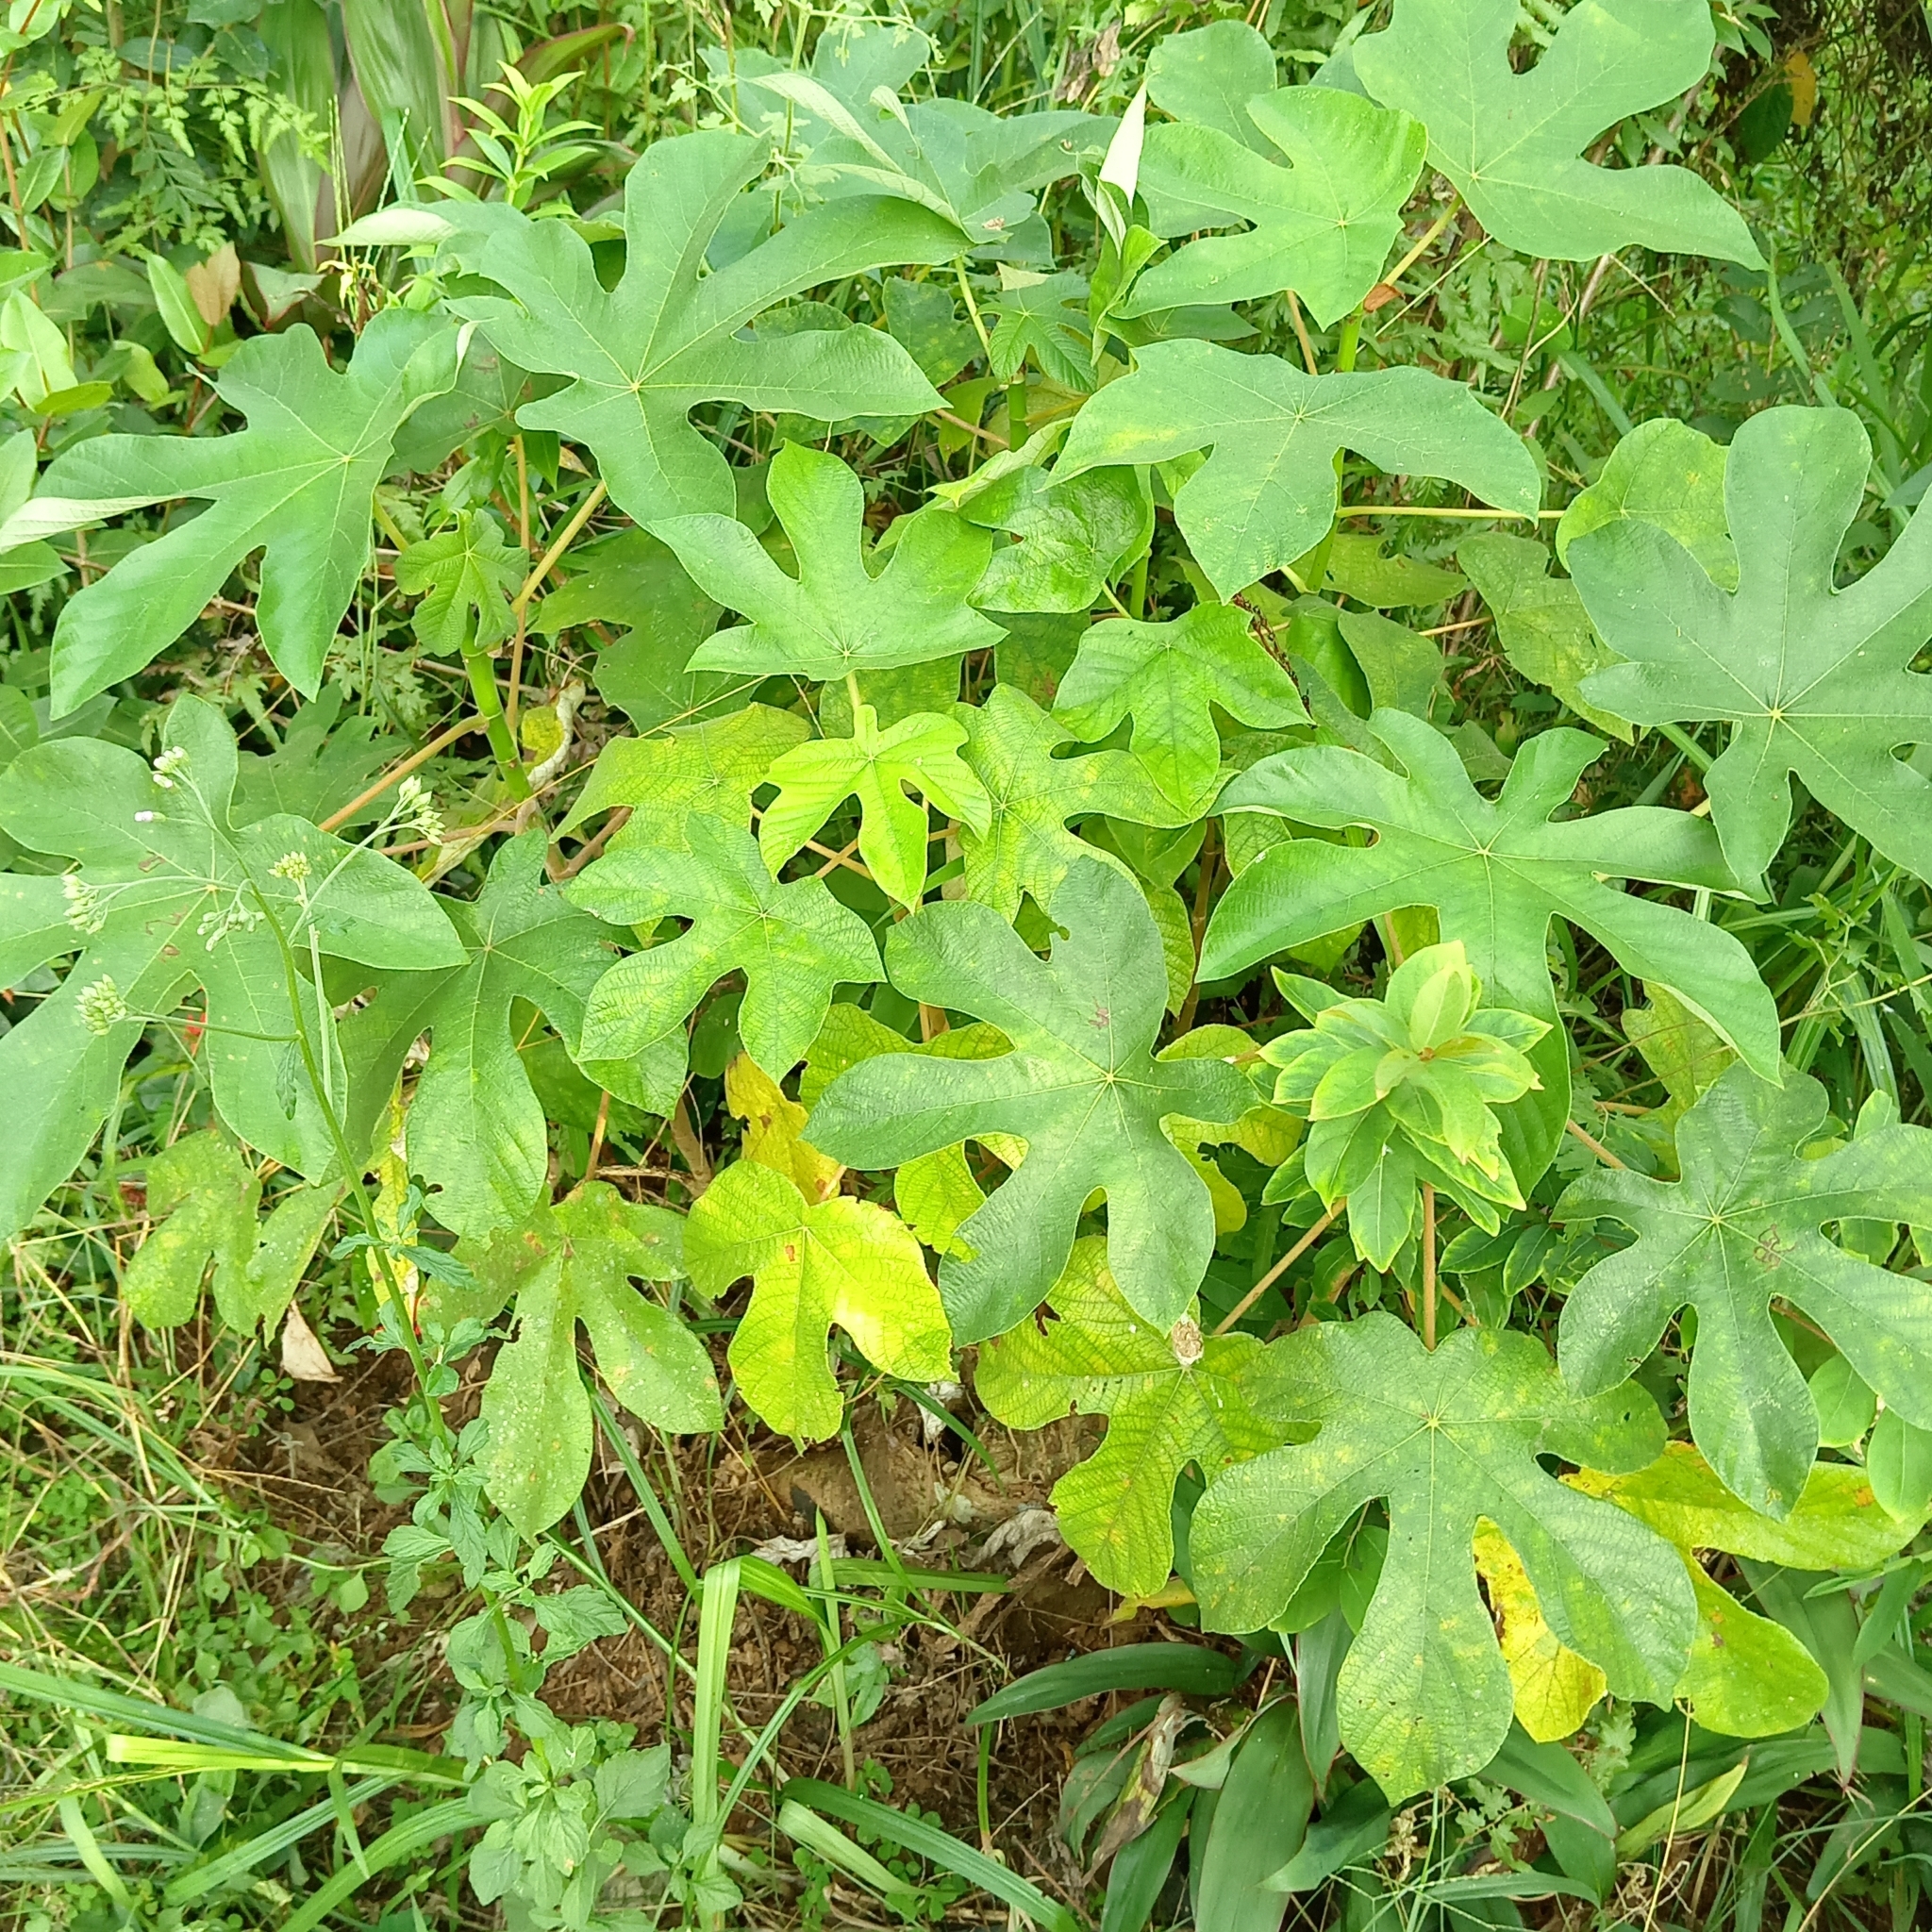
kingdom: Plantae
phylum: Tracheophyta
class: Magnoliopsida
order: Malpighiales
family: Euphorbiaceae
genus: Ricinus
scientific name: Ricinus communis
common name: Castor-oil-plant
